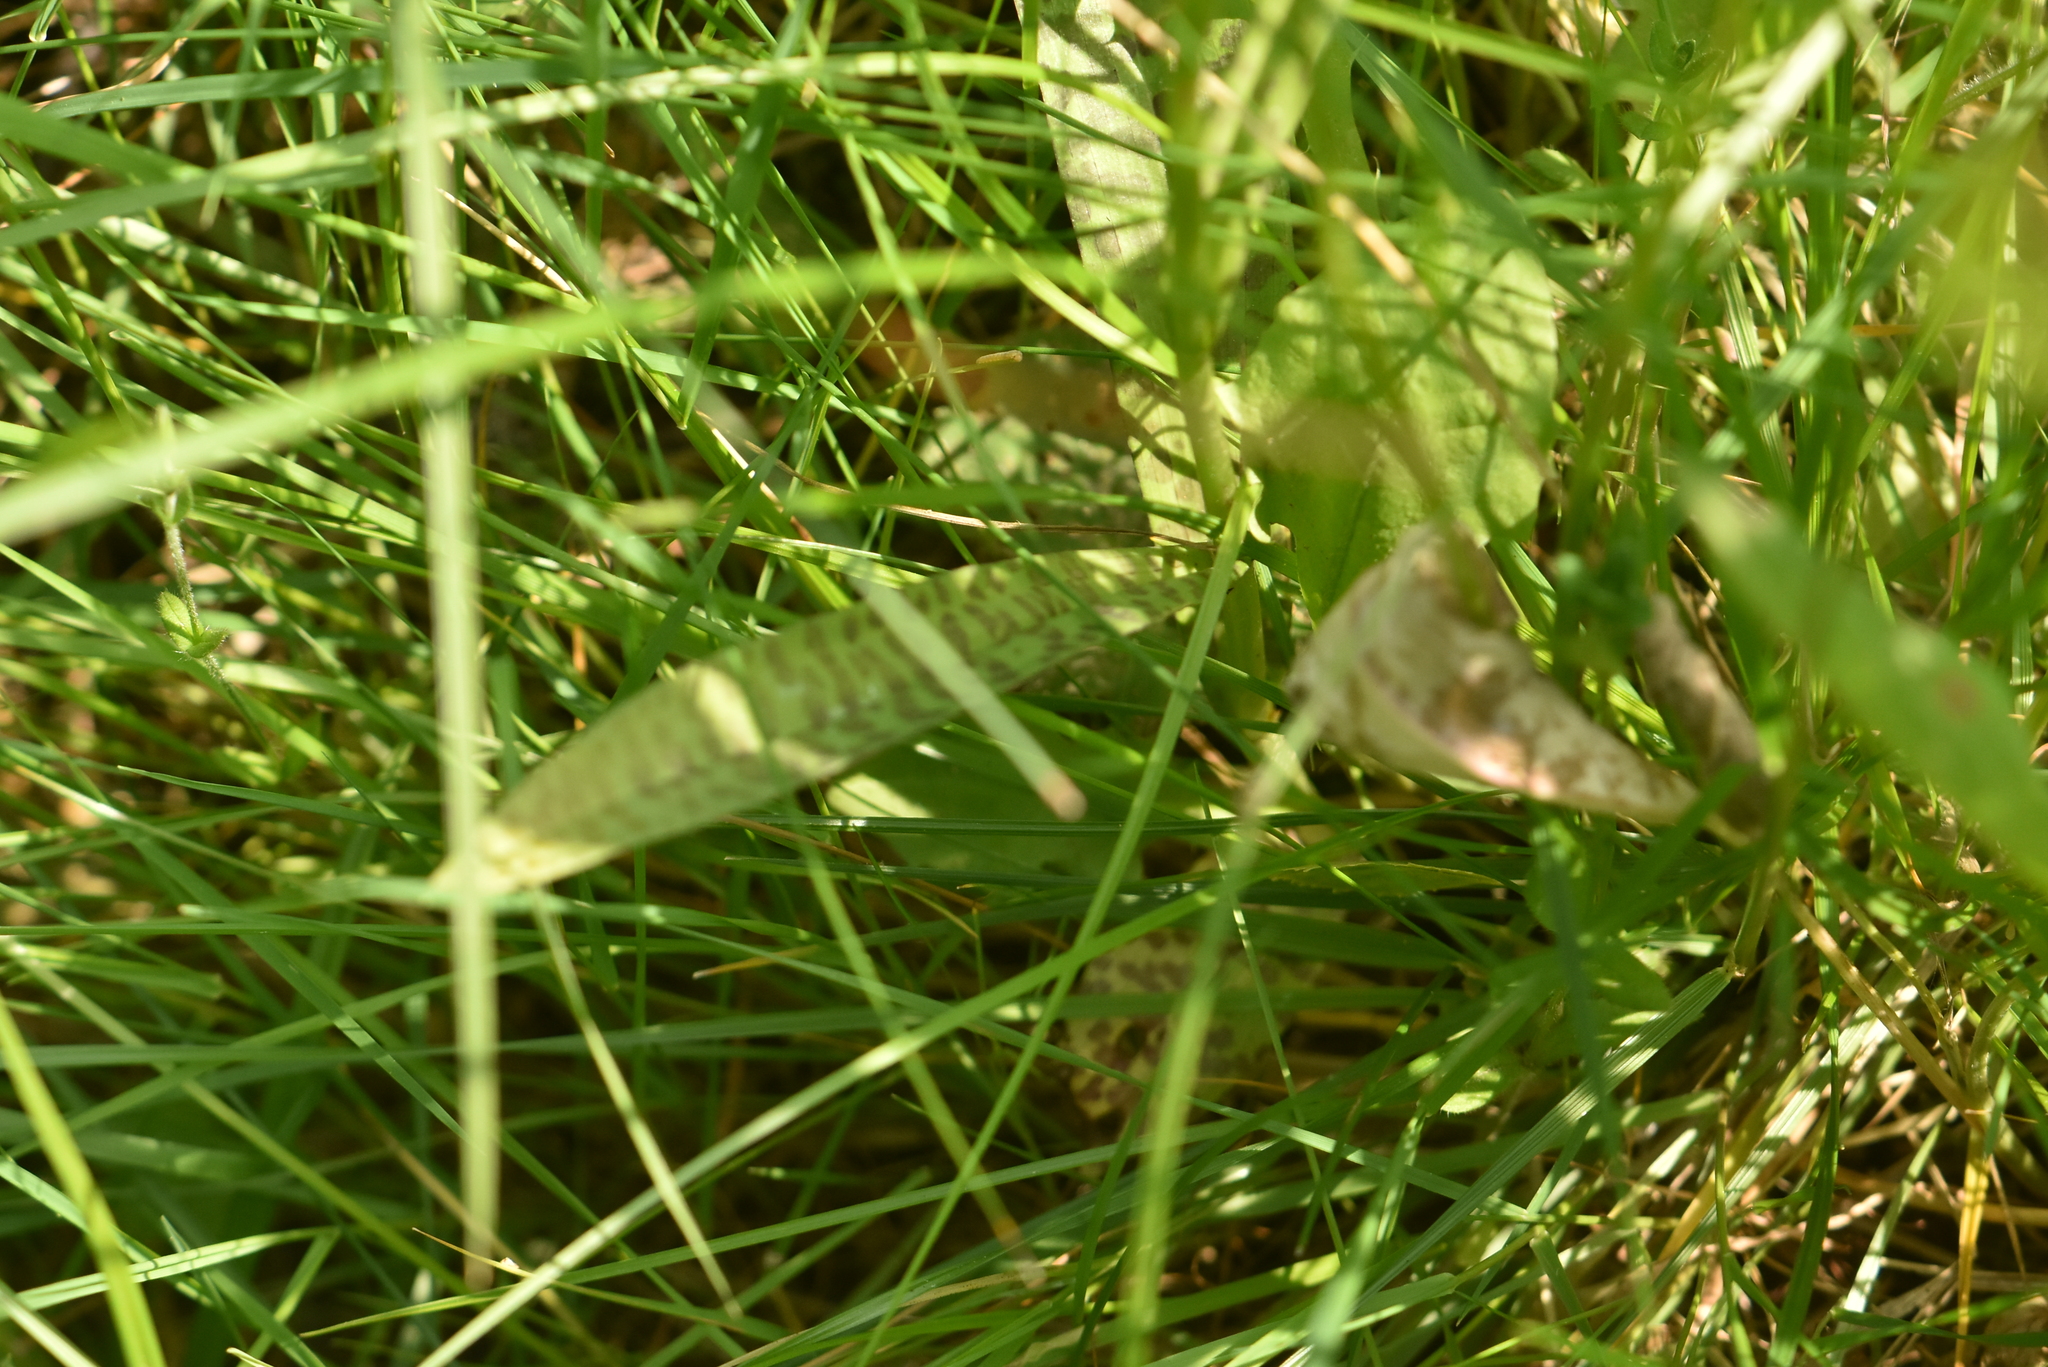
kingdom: Plantae
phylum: Tracheophyta
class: Liliopsida
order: Asparagales
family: Orchidaceae
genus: Dactylorhiza
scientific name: Dactylorhiza majalis
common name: Marsh orchid
